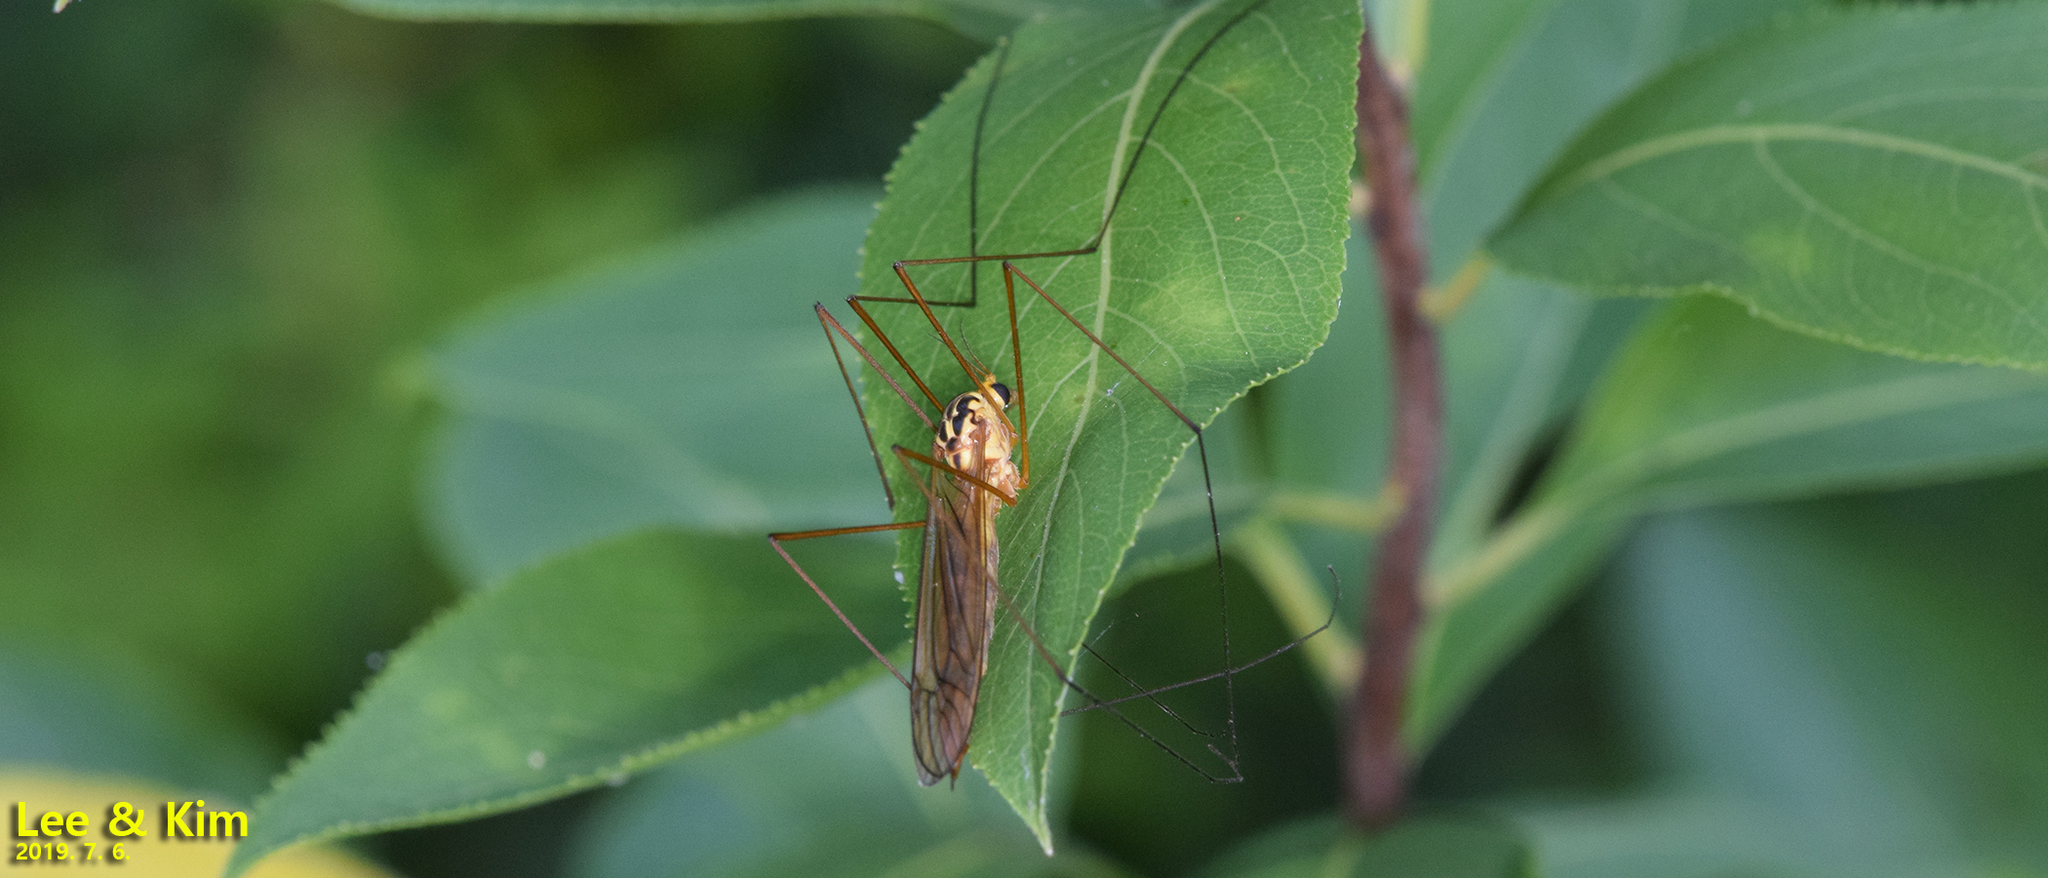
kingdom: Animalia
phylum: Arthropoda
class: Insecta
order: Diptera
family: Tipulidae
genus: Nephrotoma
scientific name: Nephrotoma virgata
